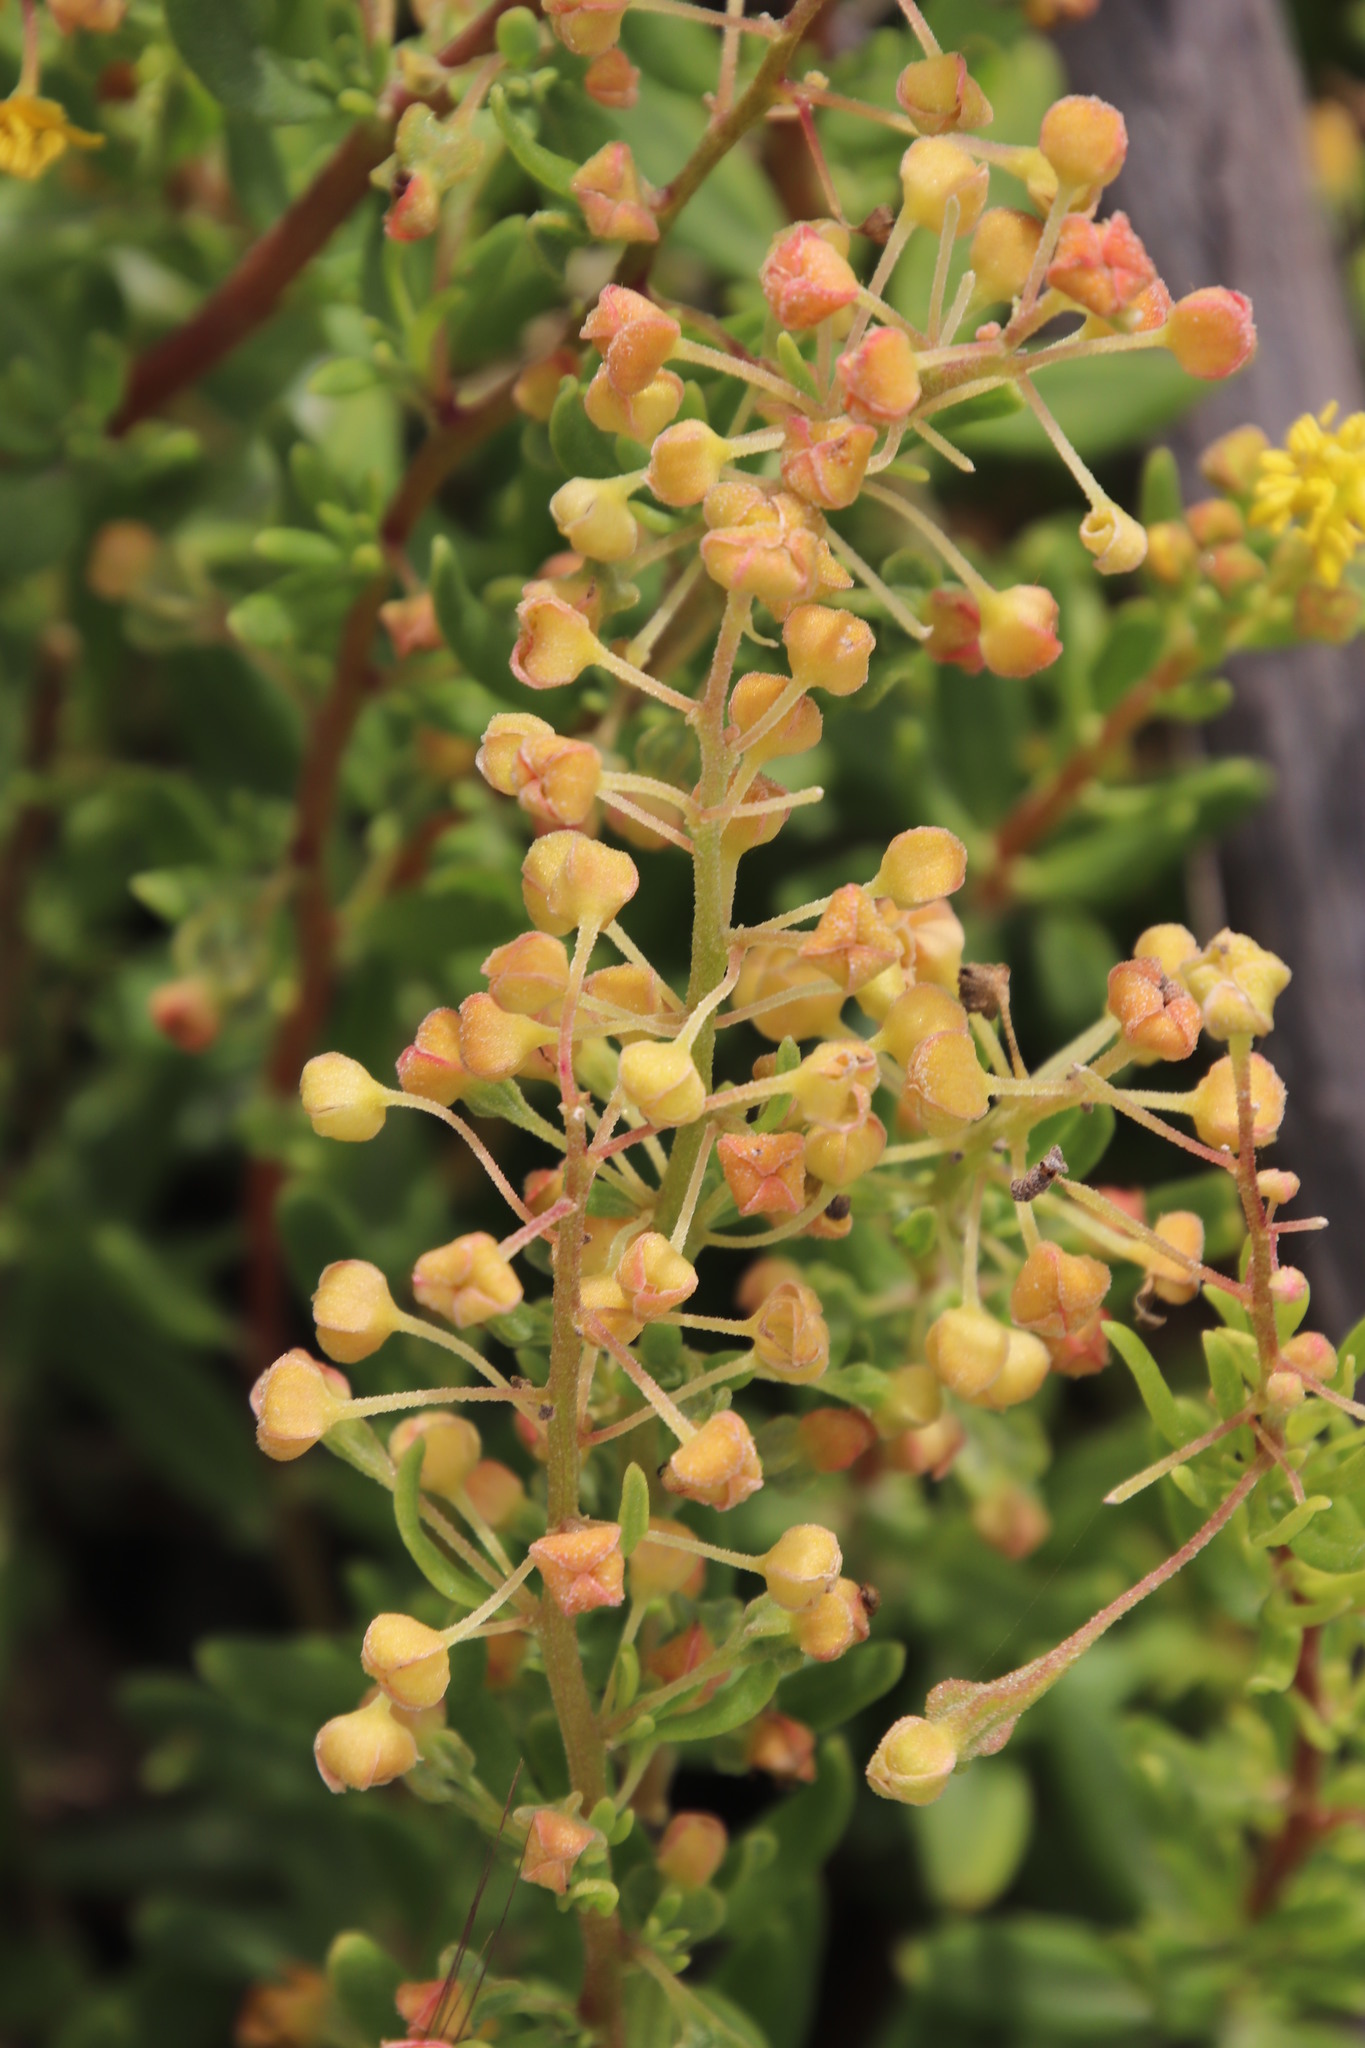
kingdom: Plantae
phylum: Tracheophyta
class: Magnoliopsida
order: Caryophyllales
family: Aizoaceae
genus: Tetragonia
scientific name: Tetragonia fruticosa
